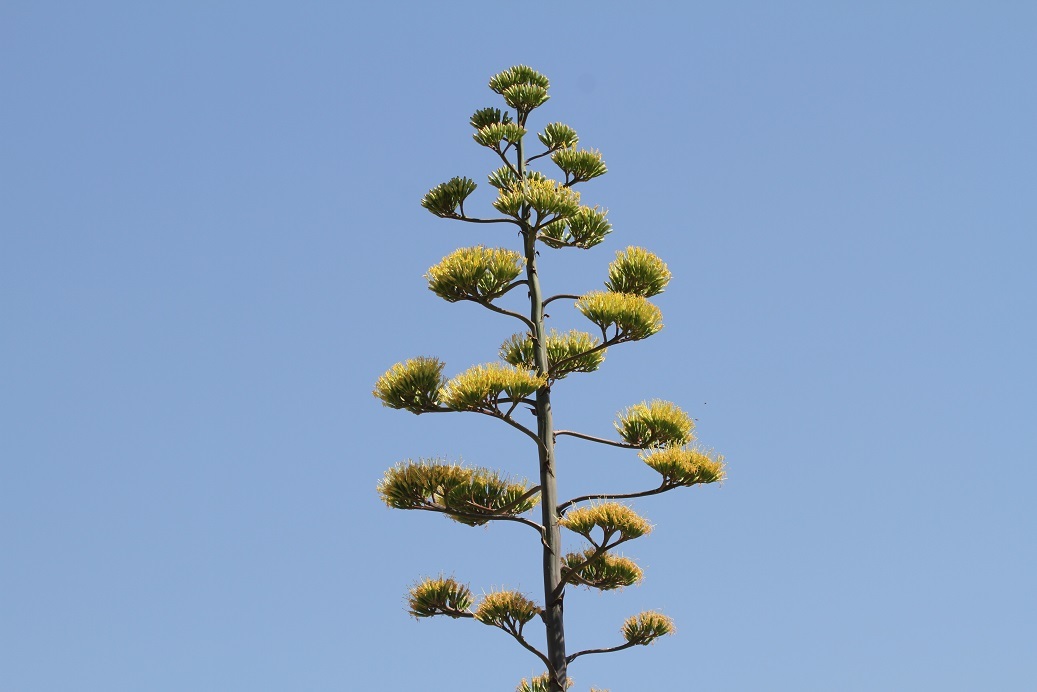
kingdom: Plantae
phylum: Tracheophyta
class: Liliopsida
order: Asparagales
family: Asparagaceae
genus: Agave
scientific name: Agave americana
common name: Centuryplant
